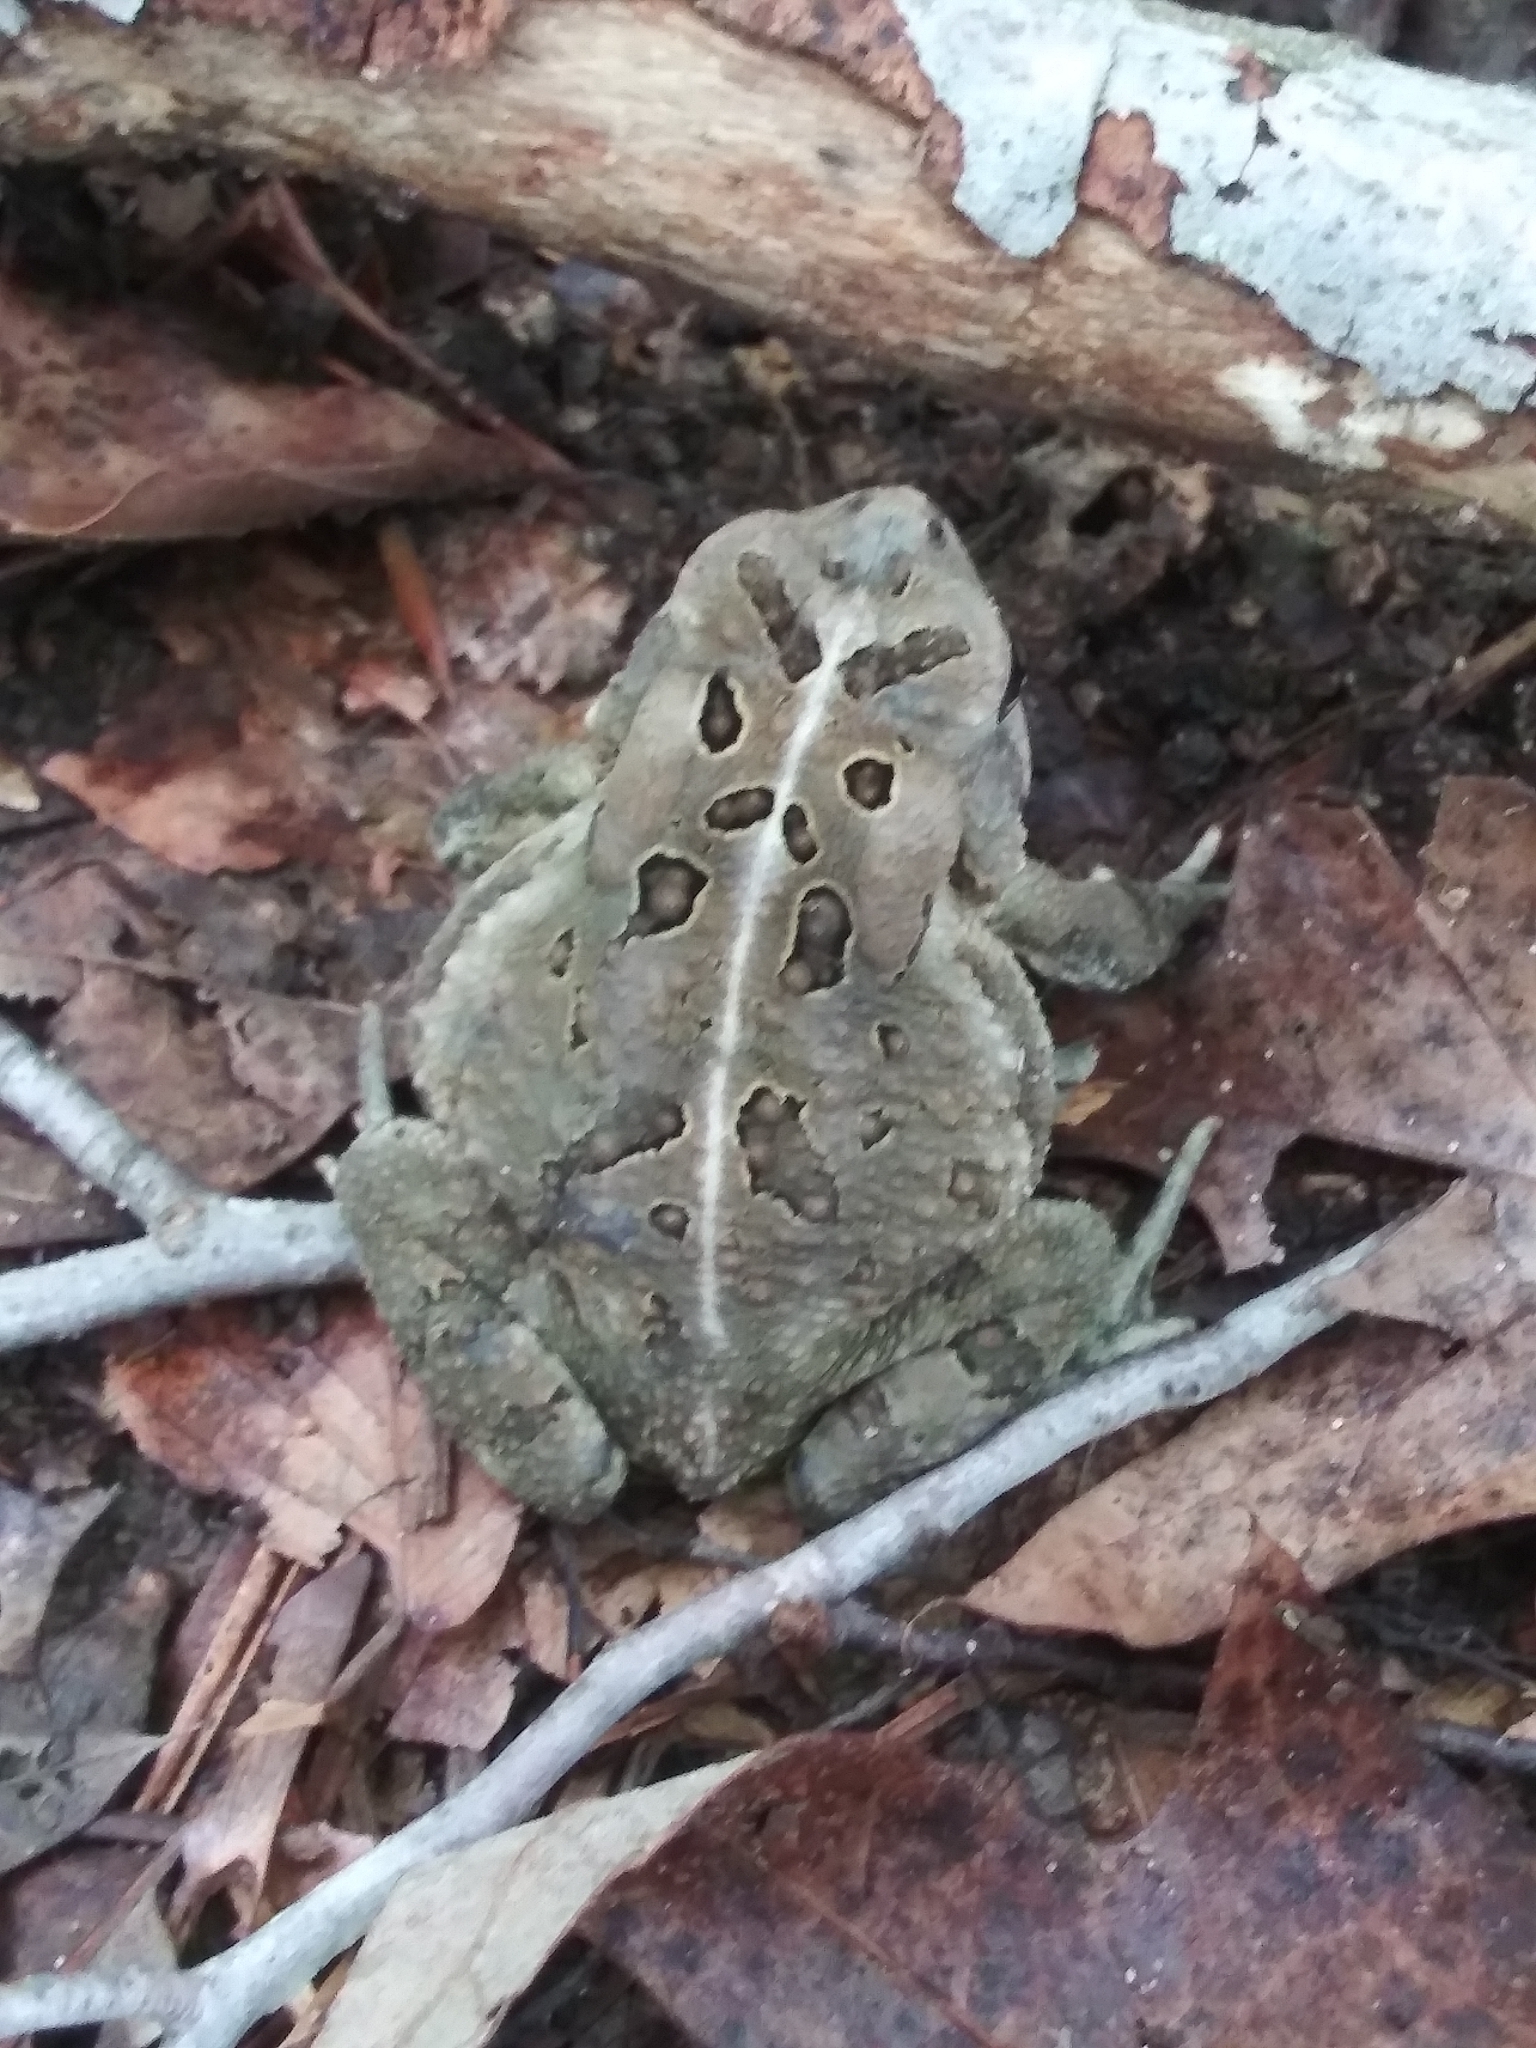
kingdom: Animalia
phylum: Chordata
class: Amphibia
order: Anura
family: Bufonidae
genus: Anaxyrus
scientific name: Anaxyrus fowleri
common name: Fowler's toad
